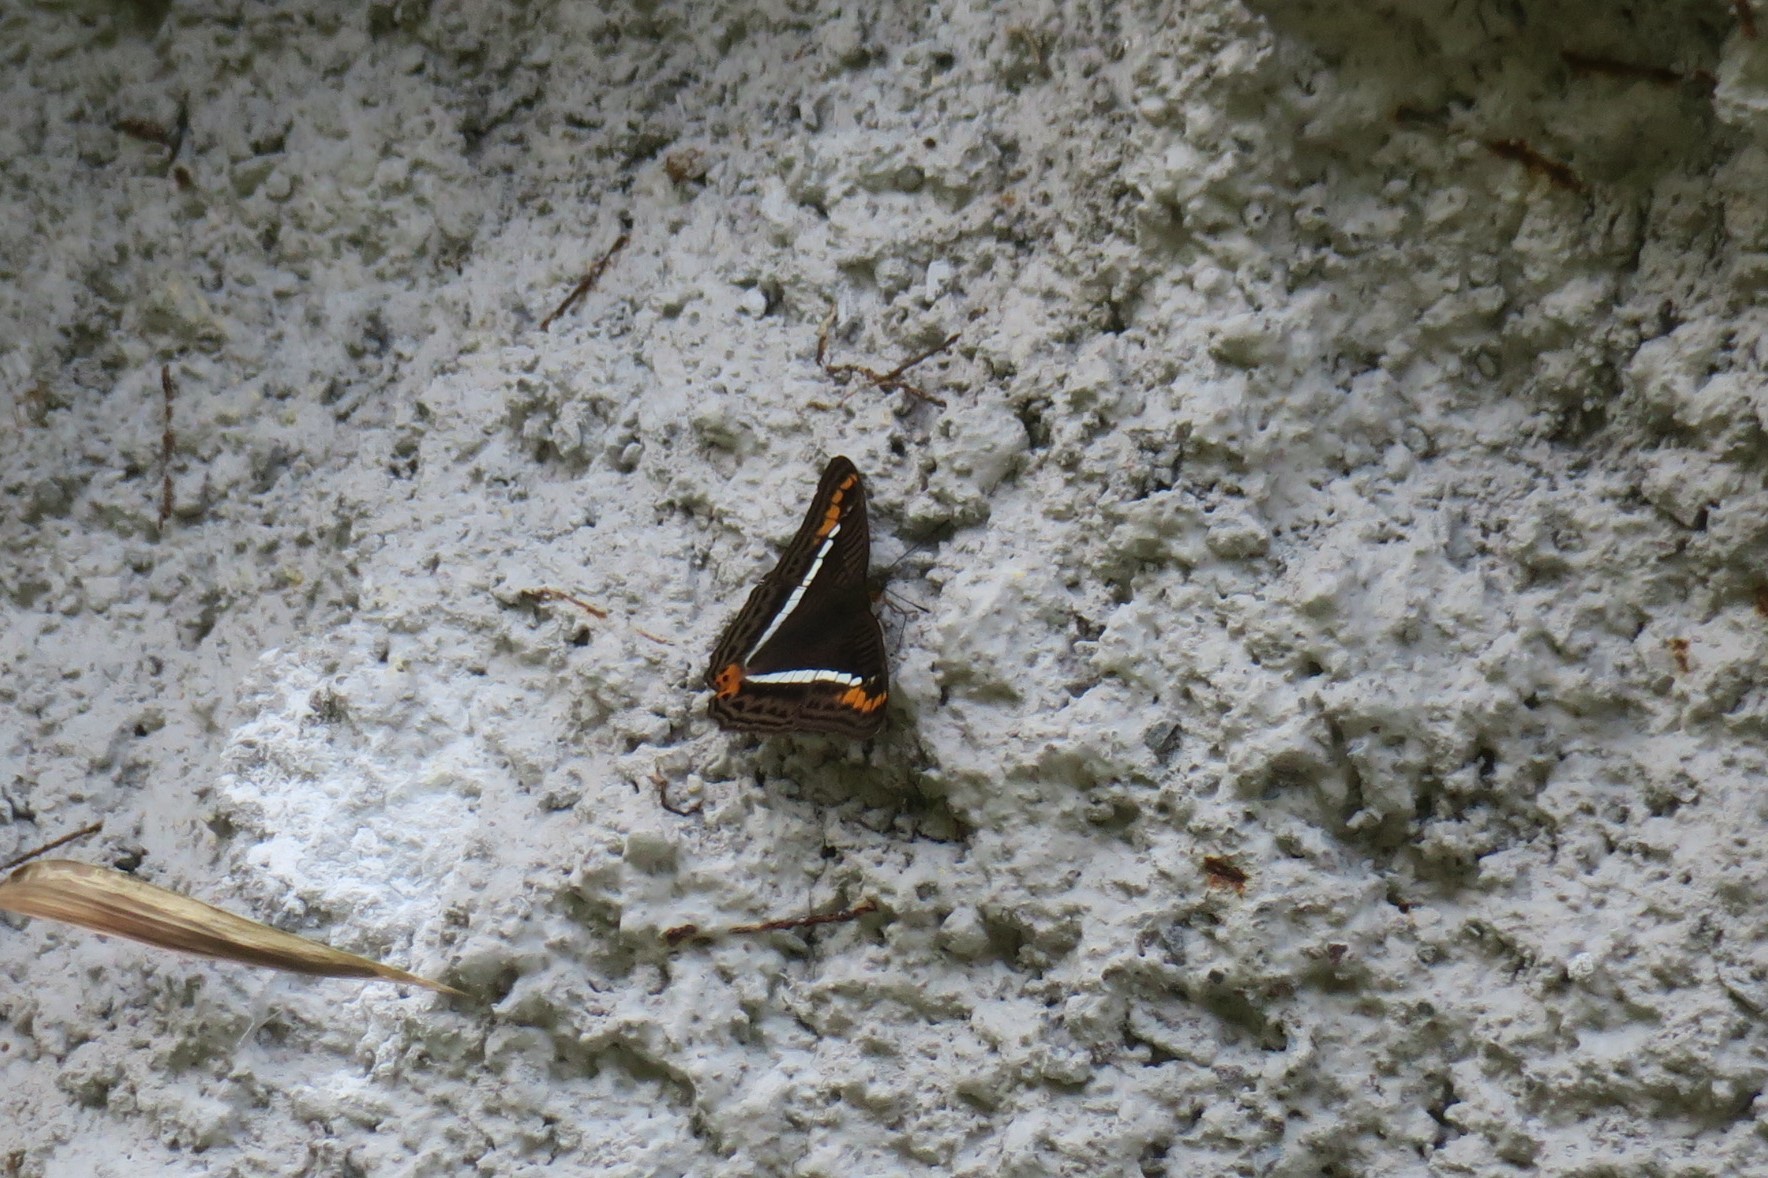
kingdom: Animalia
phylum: Arthropoda
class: Insecta
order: Lepidoptera
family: Nymphalidae
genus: Limenitis
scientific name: Limenitis corcyra
